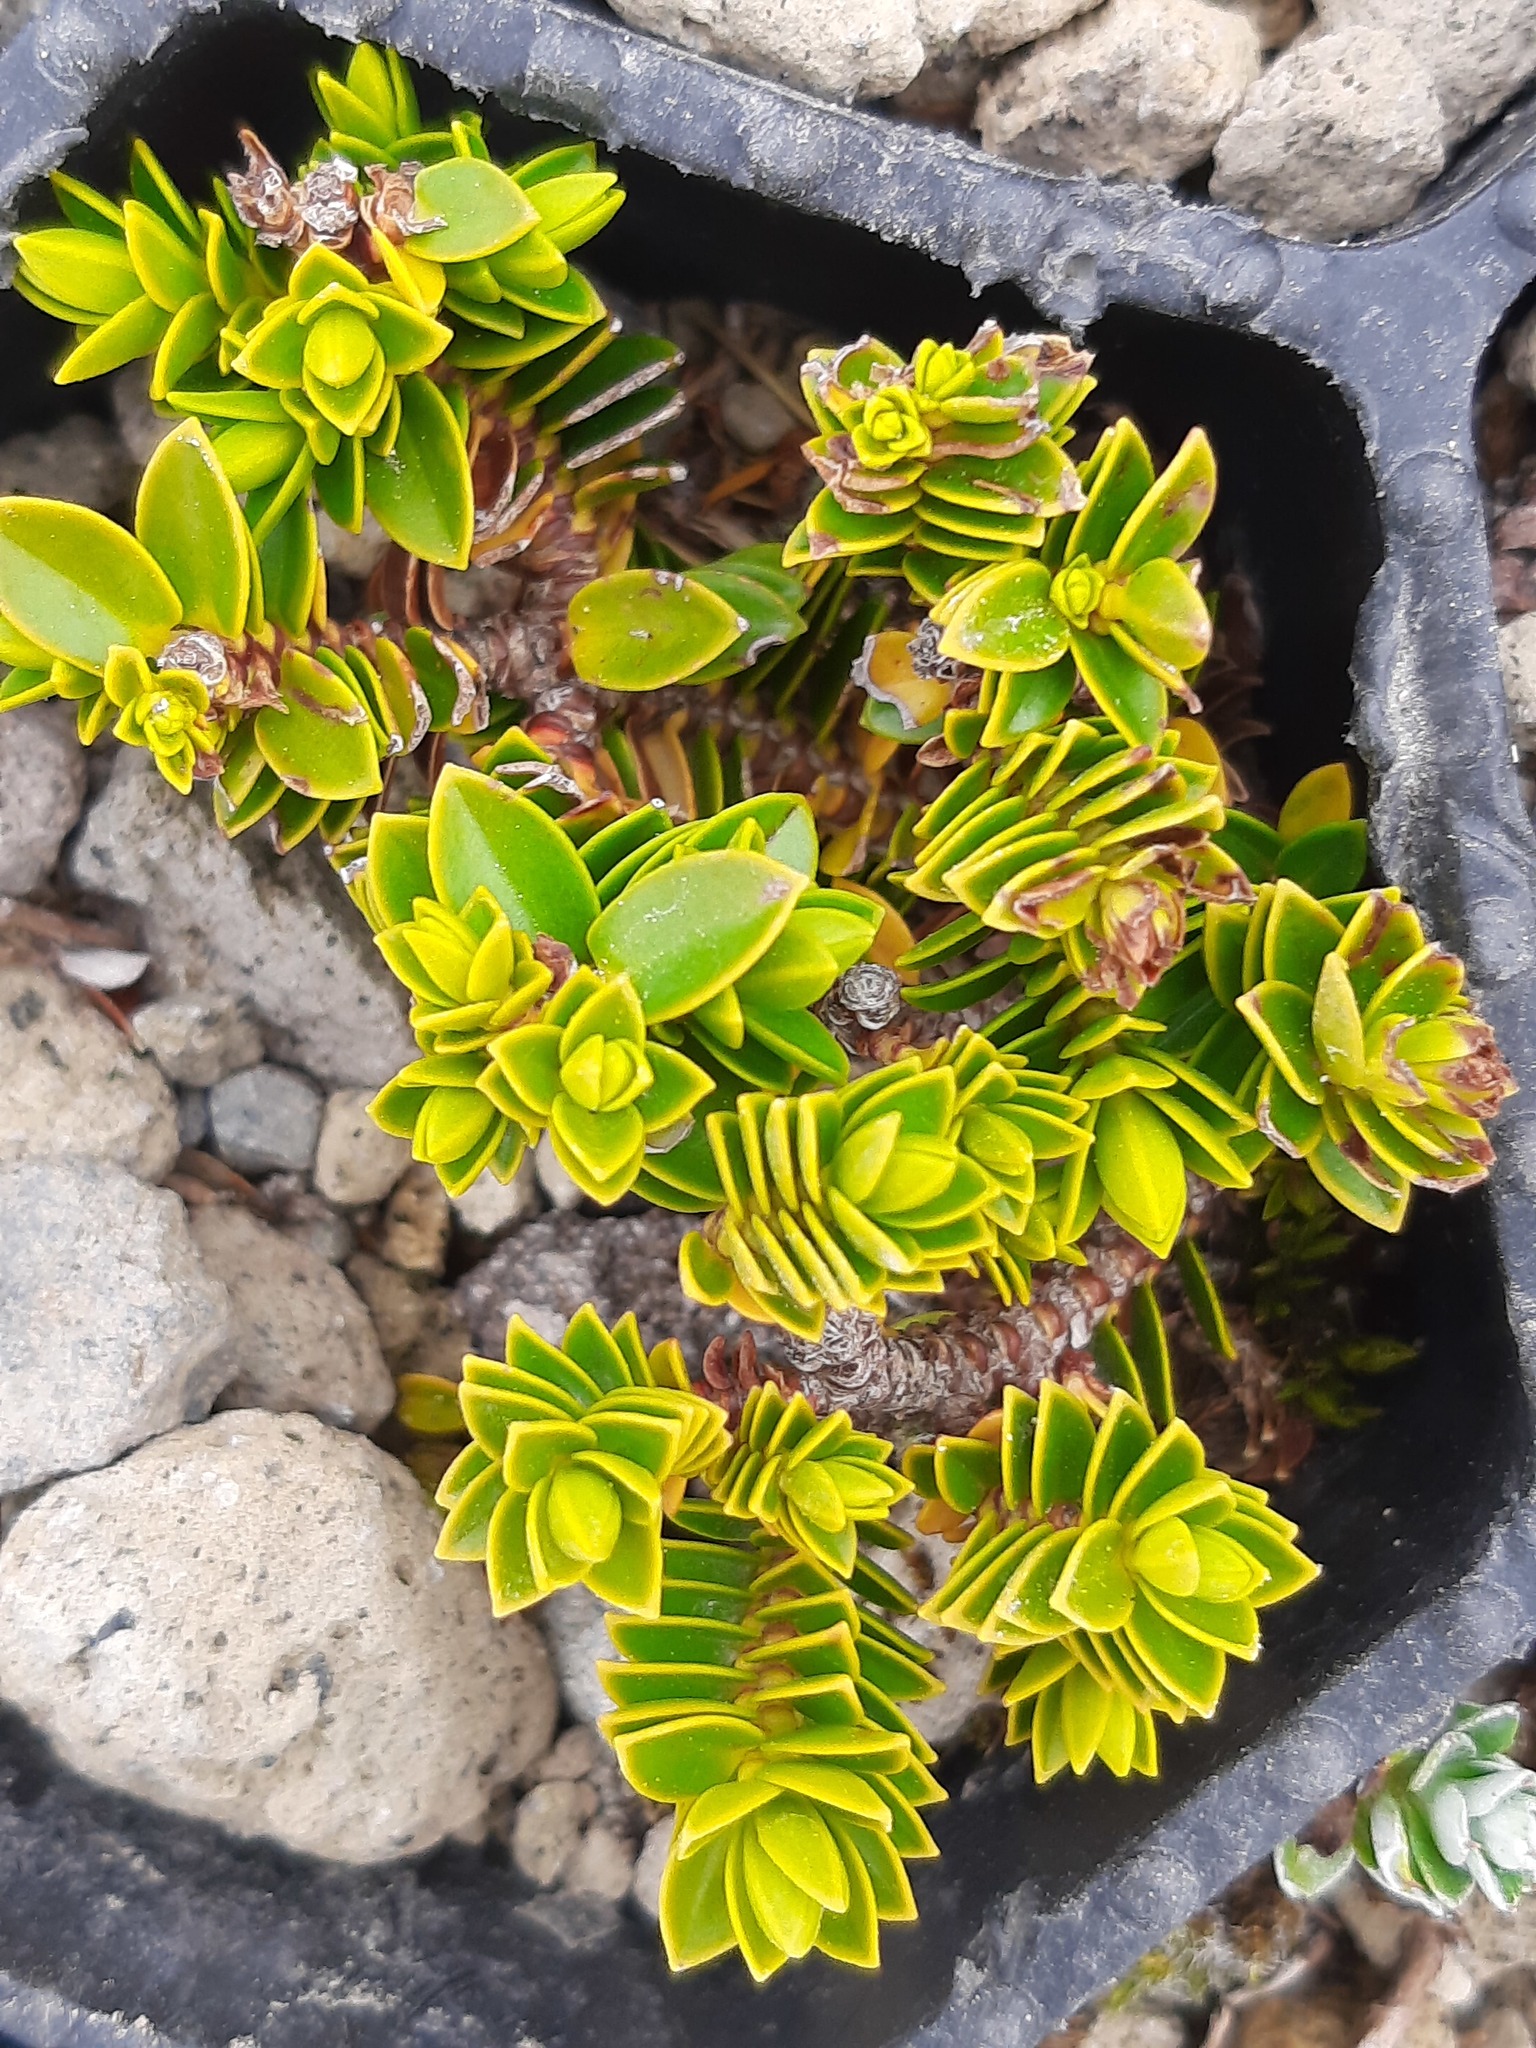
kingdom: Plantae
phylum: Tracheophyta
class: Magnoliopsida
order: Lamiales
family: Plantaginaceae
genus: Veronica
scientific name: Veronica odora
